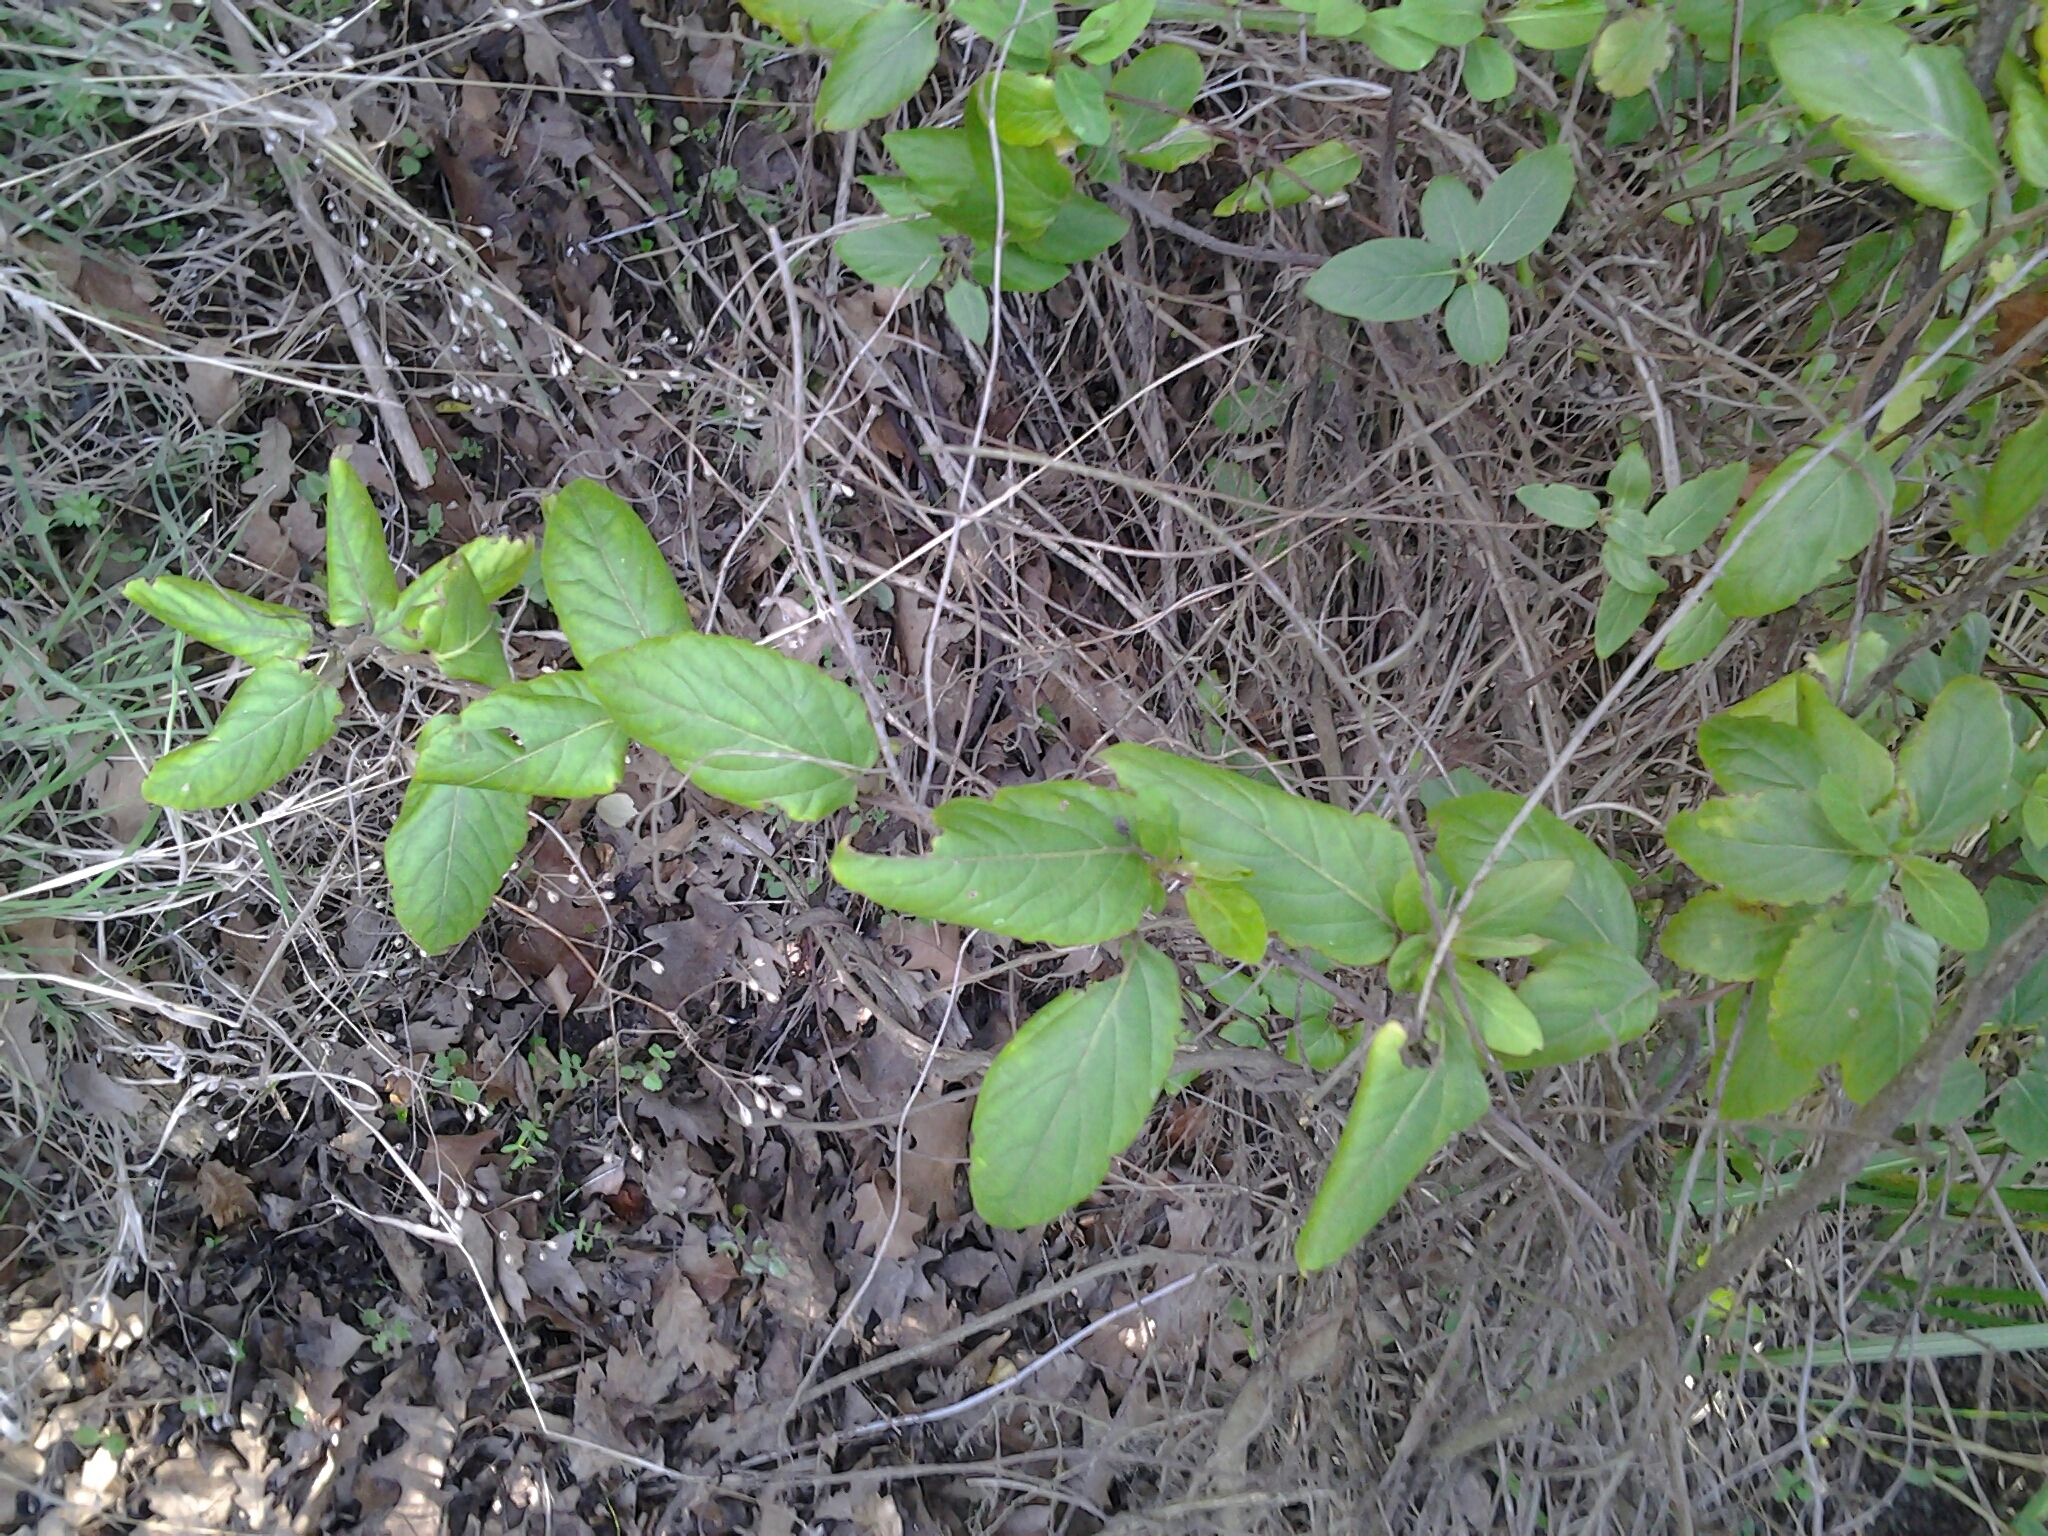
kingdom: Plantae
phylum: Tracheophyta
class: Magnoliopsida
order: Dipsacales
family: Caprifoliaceae
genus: Lonicera
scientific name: Lonicera japonica
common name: Japanese honeysuckle
